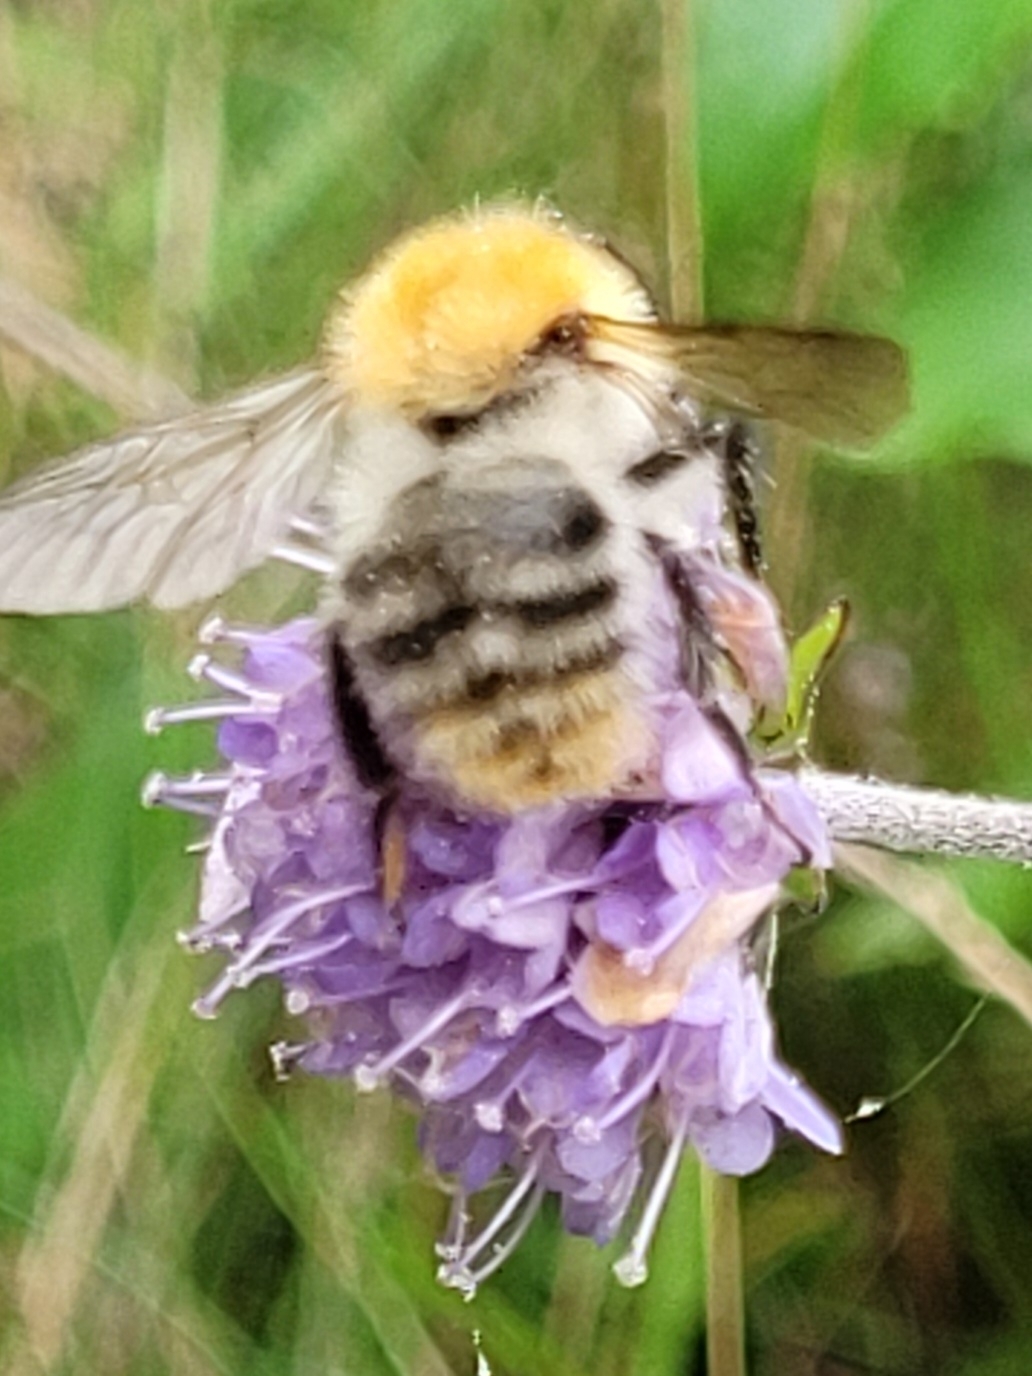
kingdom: Animalia
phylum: Arthropoda
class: Insecta
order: Hymenoptera
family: Apidae
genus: Bombus
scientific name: Bombus pascuorum
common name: Common carder bee
